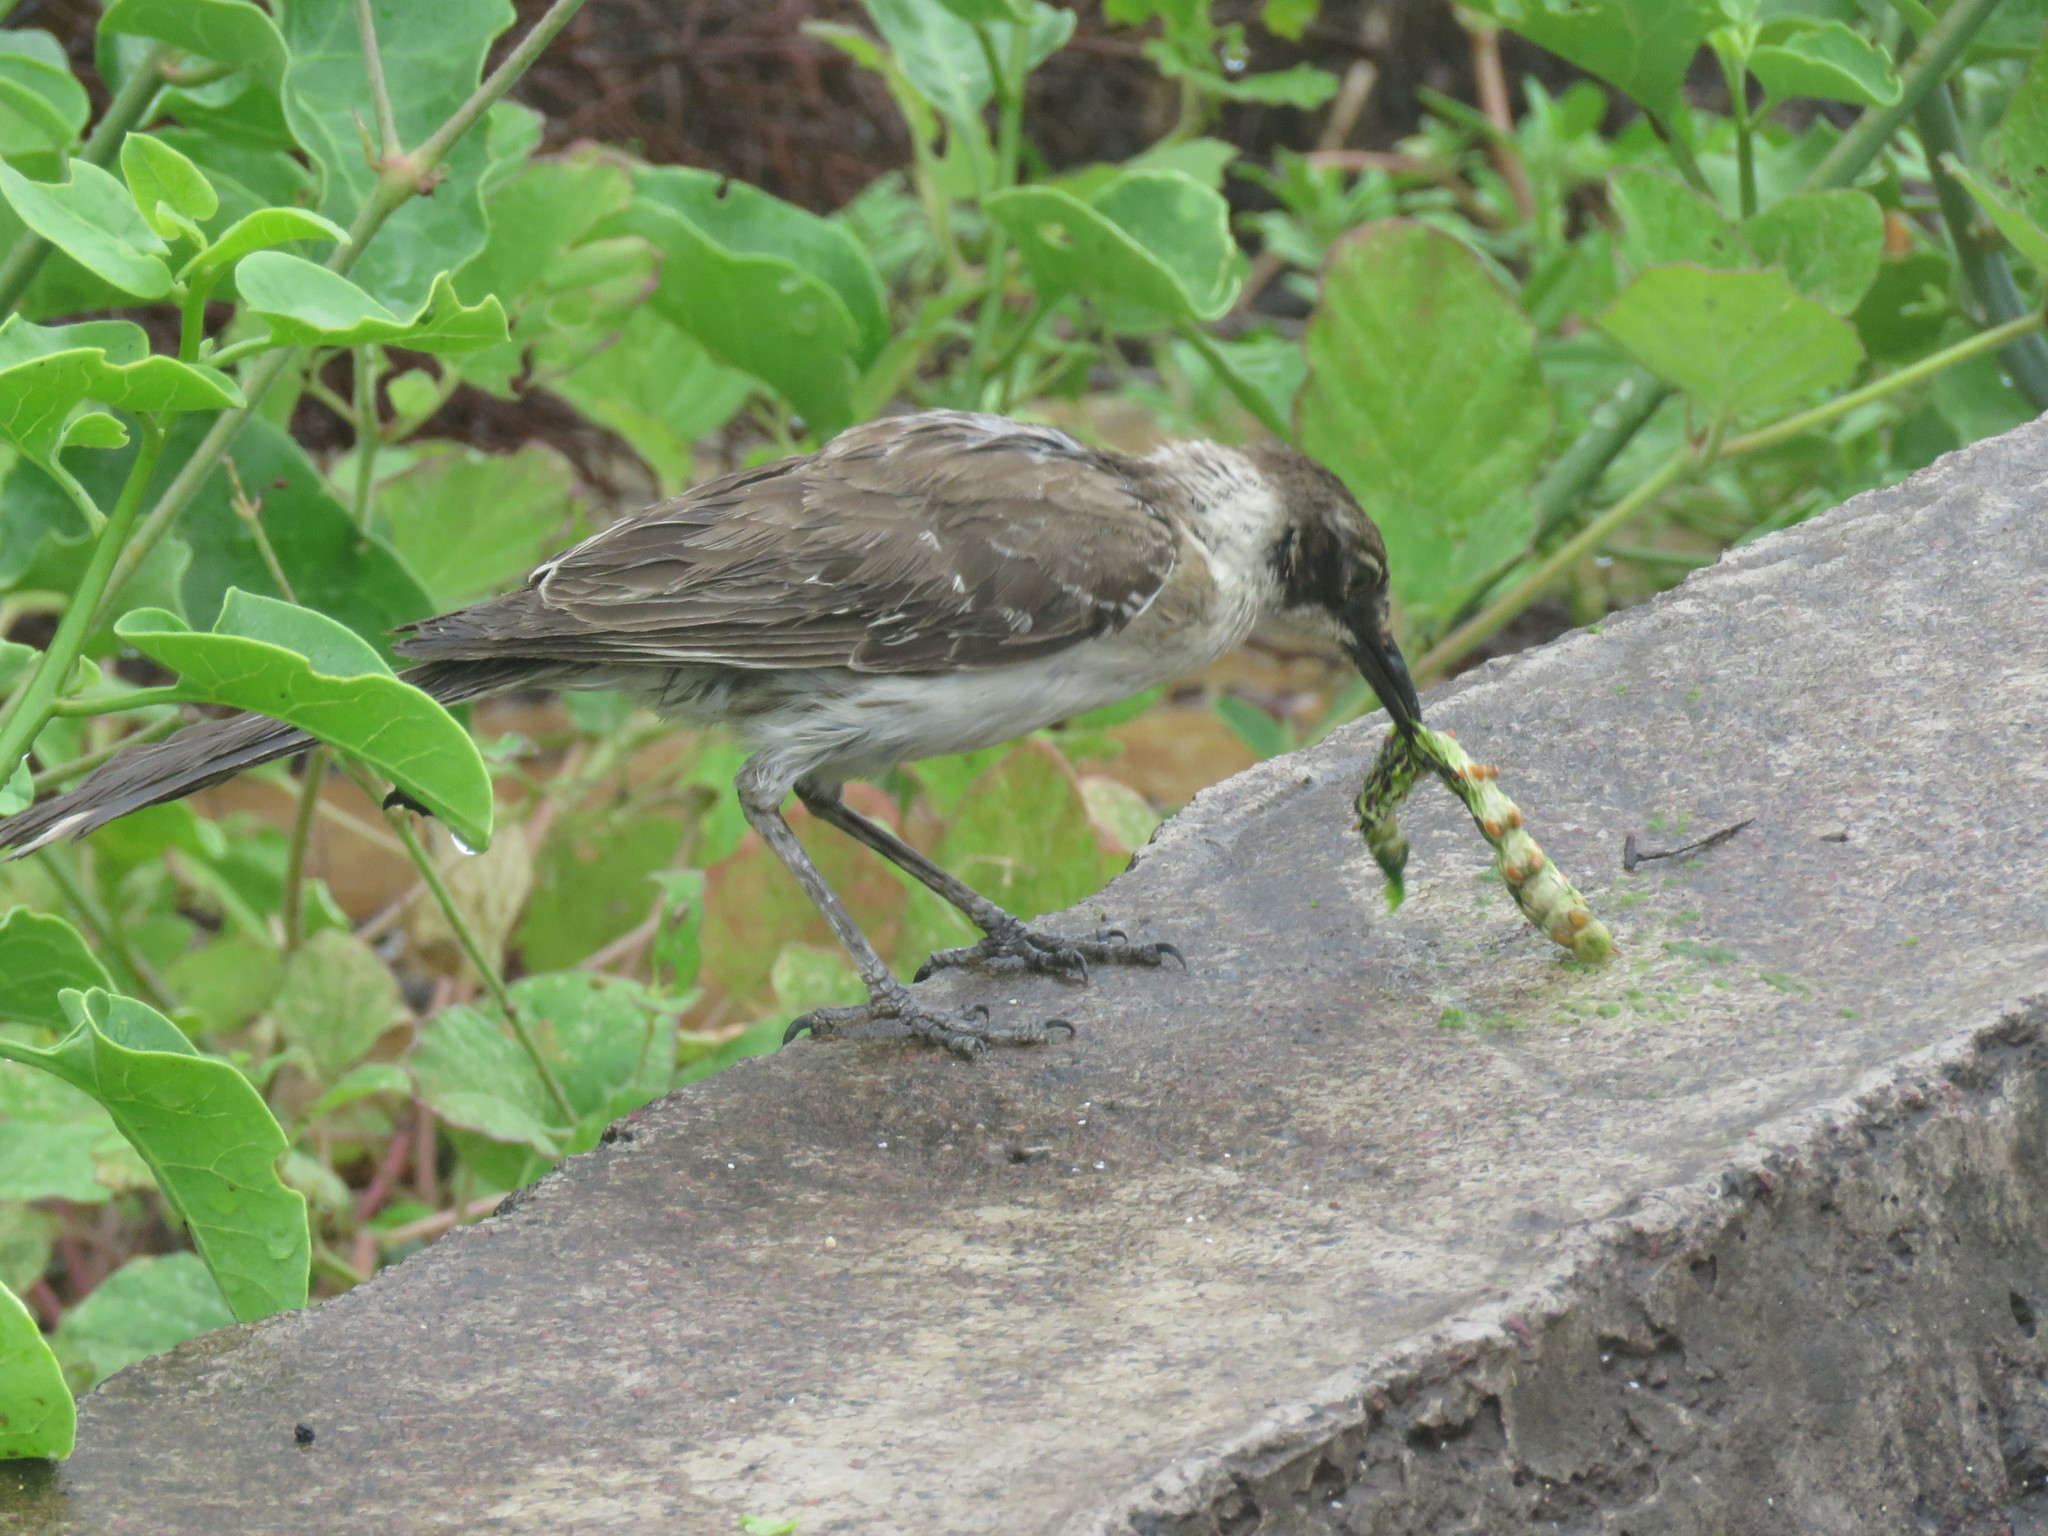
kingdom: Animalia
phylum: Chordata
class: Aves
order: Passeriformes
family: Mimidae
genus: Mimus
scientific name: Mimus parvulus
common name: Galapagos mockingbird
